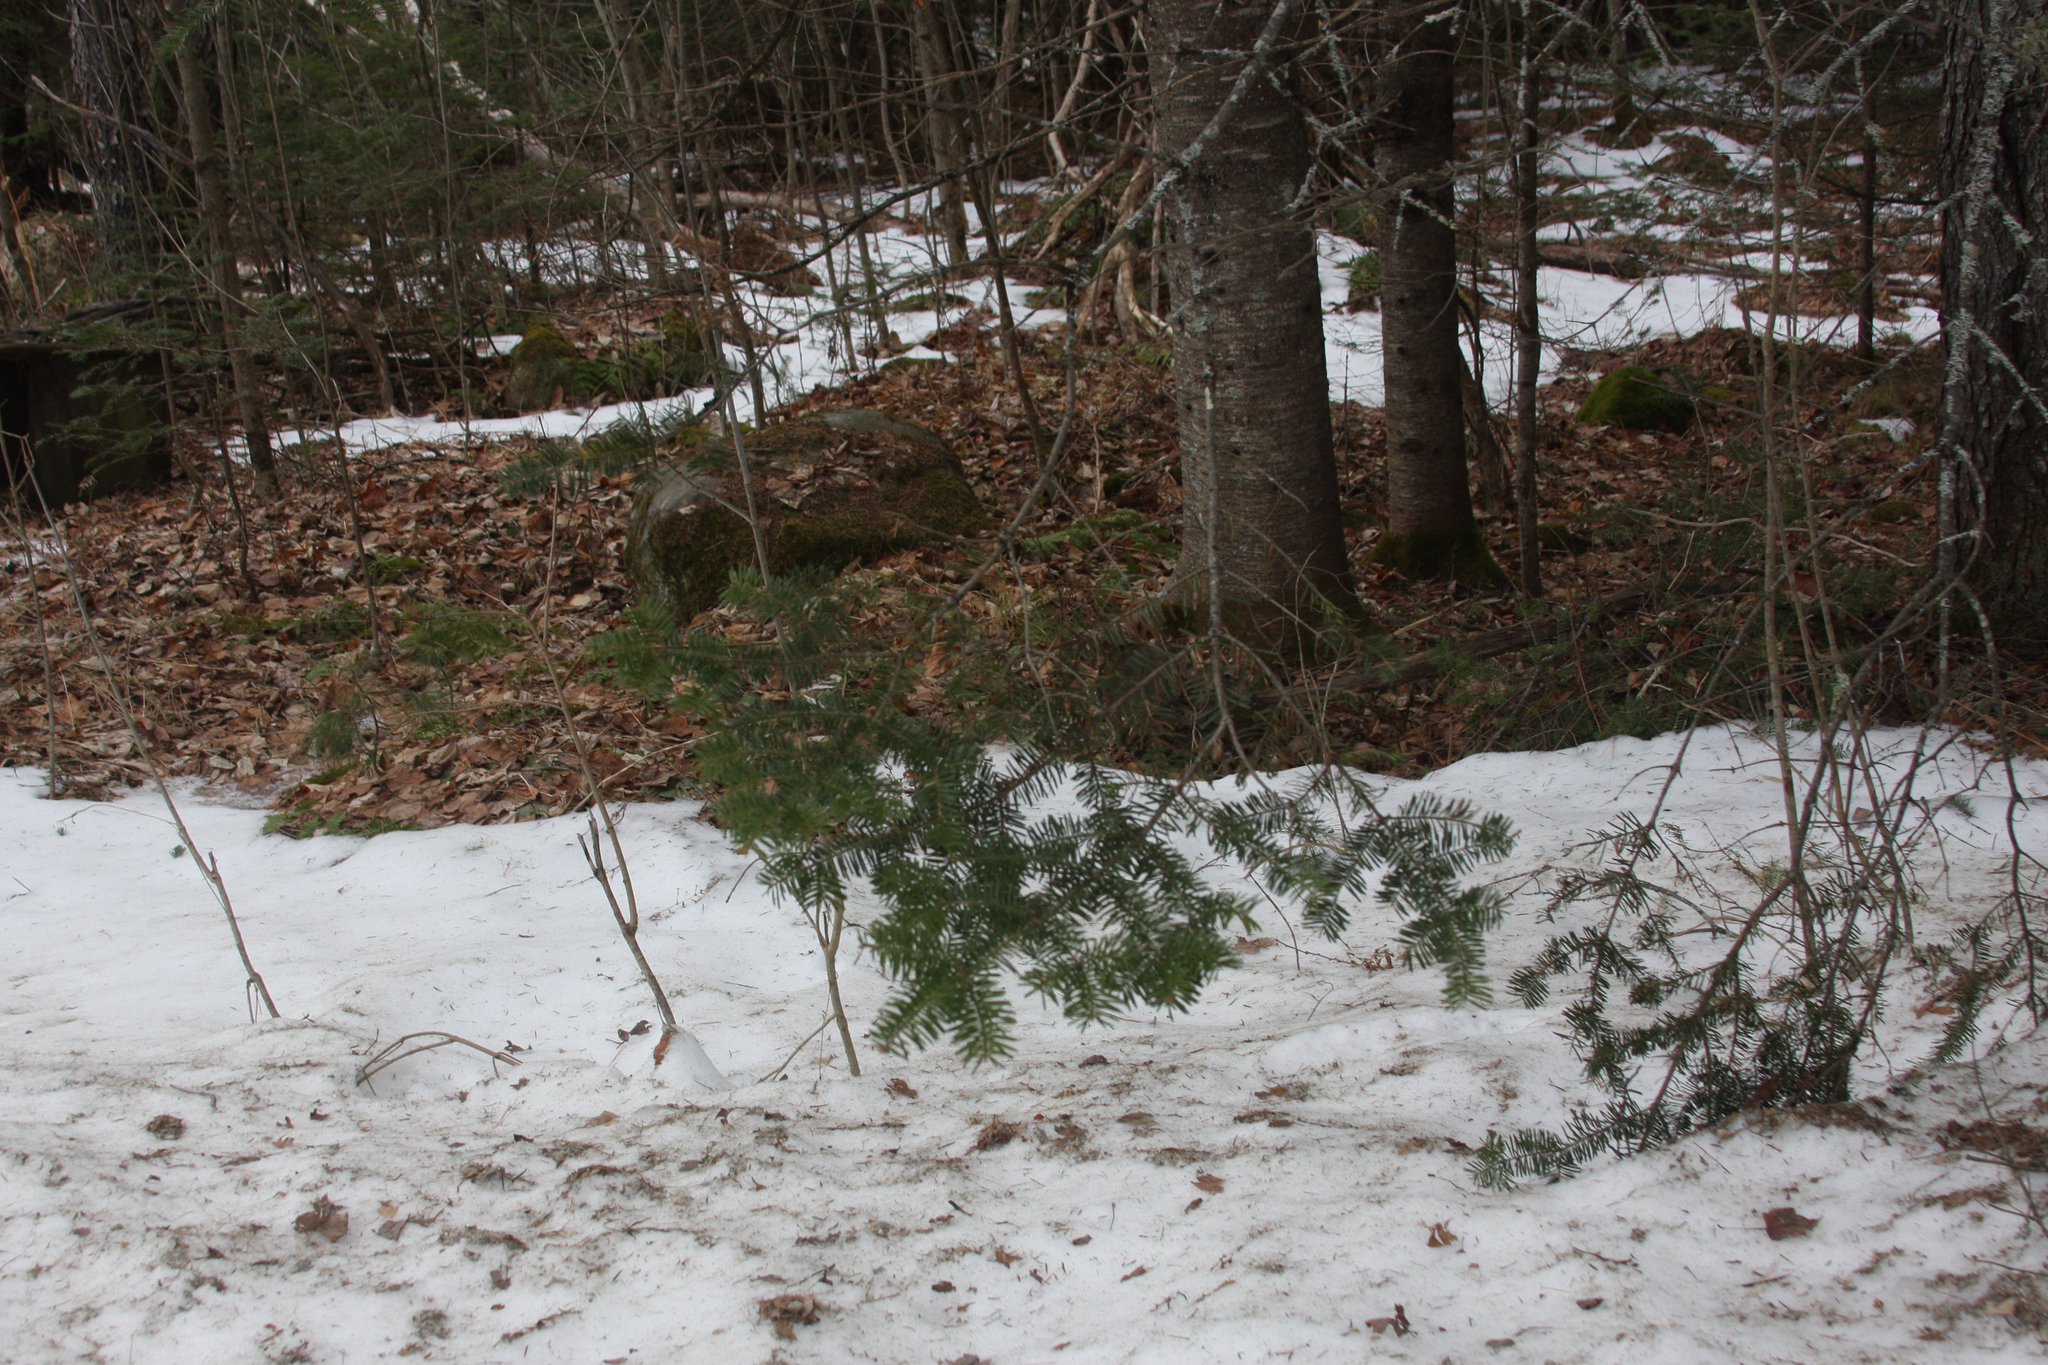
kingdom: Plantae
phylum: Tracheophyta
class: Pinopsida
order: Pinales
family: Pinaceae
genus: Abies
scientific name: Abies balsamea
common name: Balsam fir
